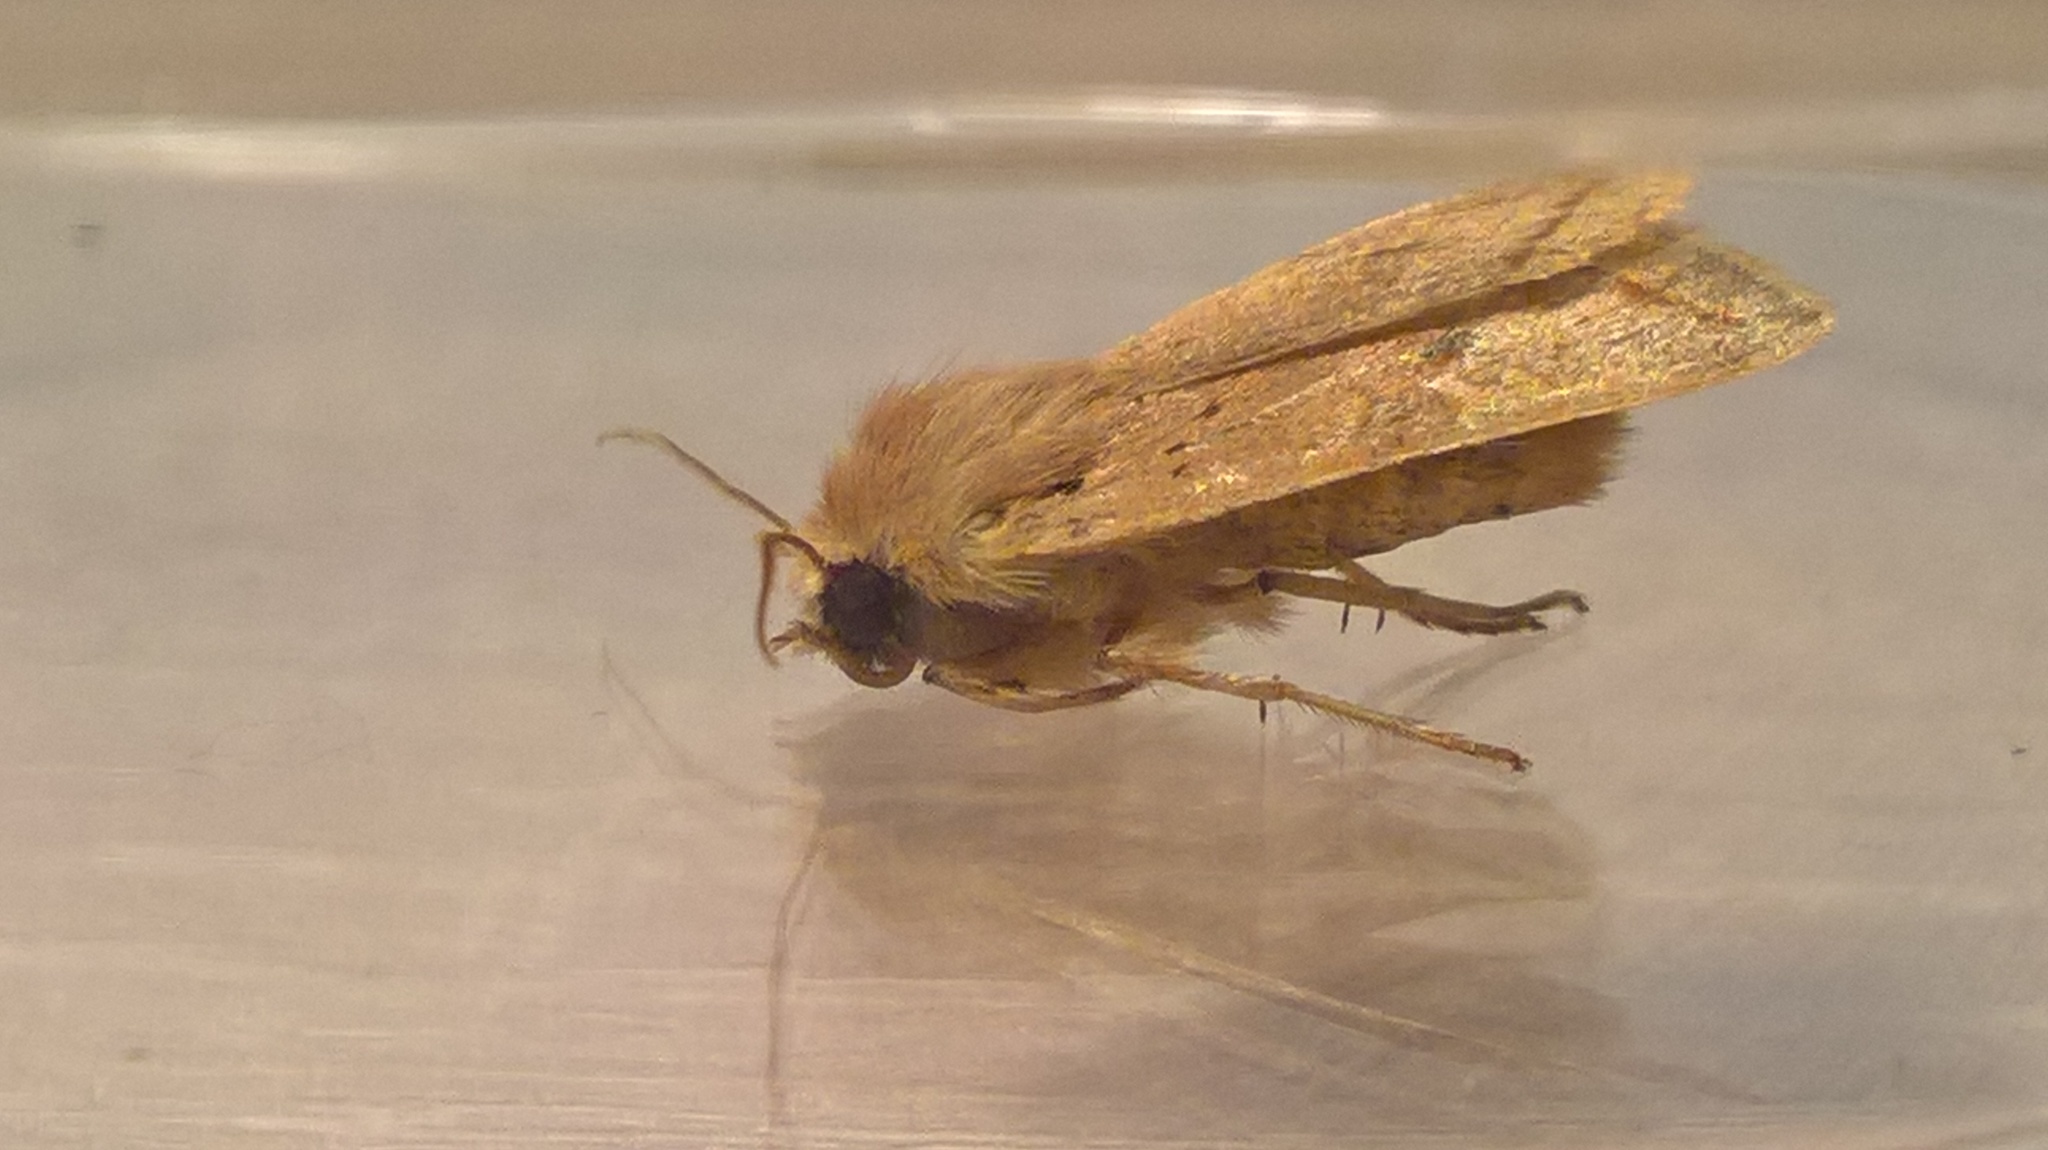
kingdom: Animalia
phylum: Arthropoda
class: Insecta
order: Lepidoptera
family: Noctuidae
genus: Agrochola
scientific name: Agrochola macilenta
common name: Yellow-line quaker
